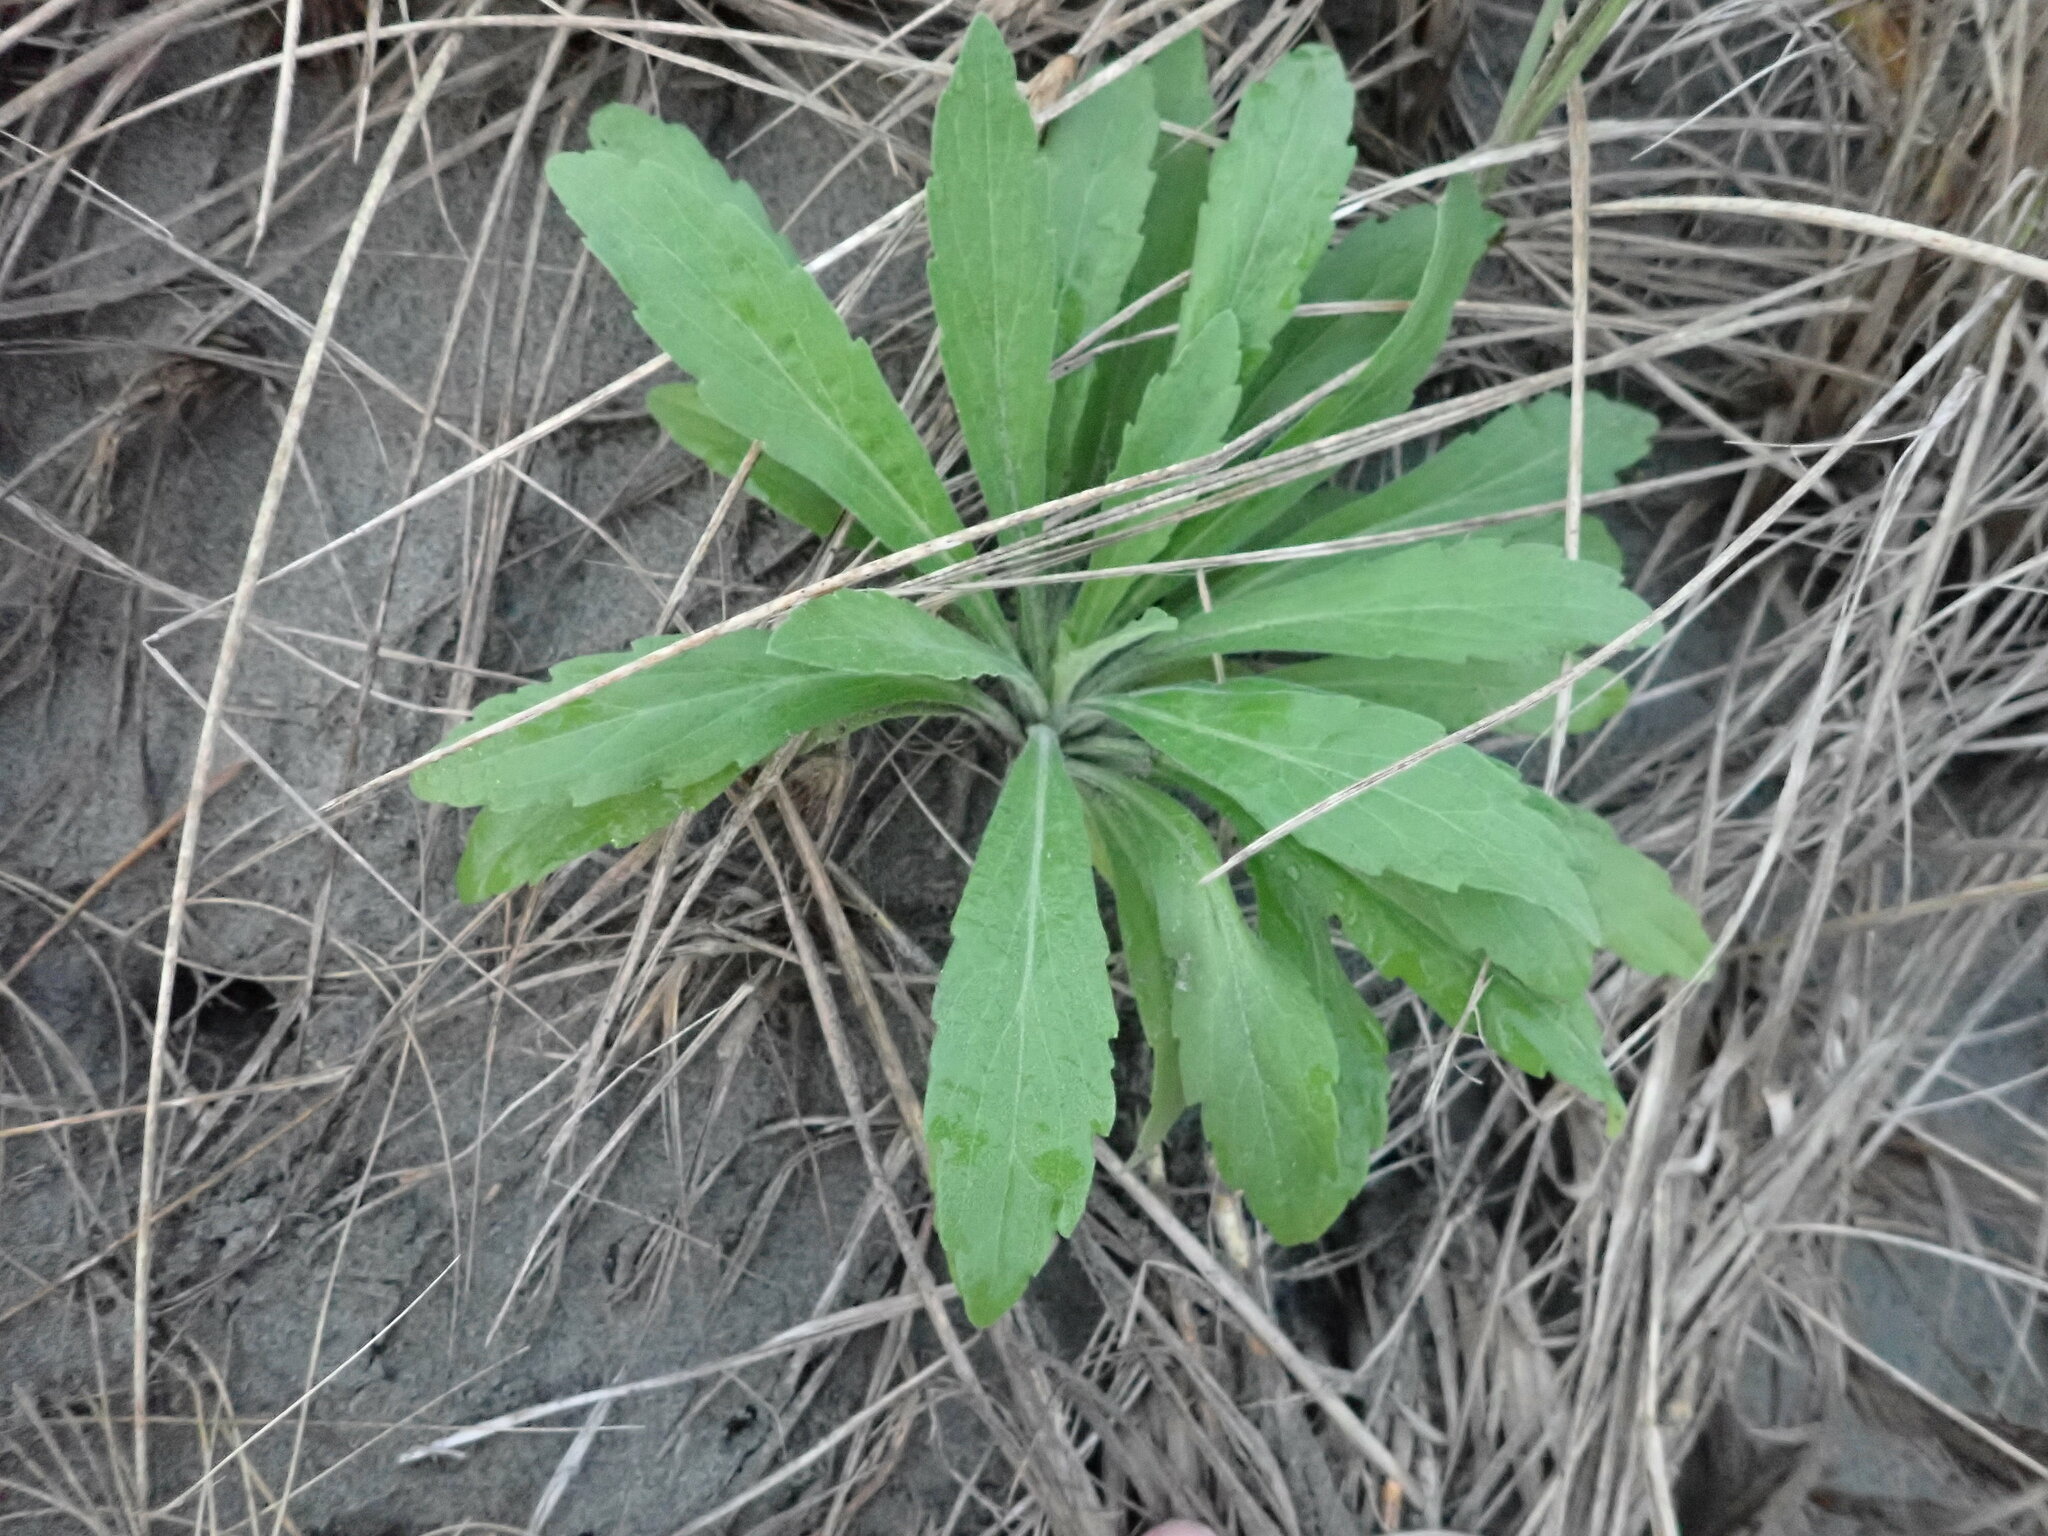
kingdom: Plantae
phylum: Tracheophyta
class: Magnoliopsida
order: Asterales
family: Asteraceae
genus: Erigeron
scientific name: Erigeron sumatrensis
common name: Daisy
